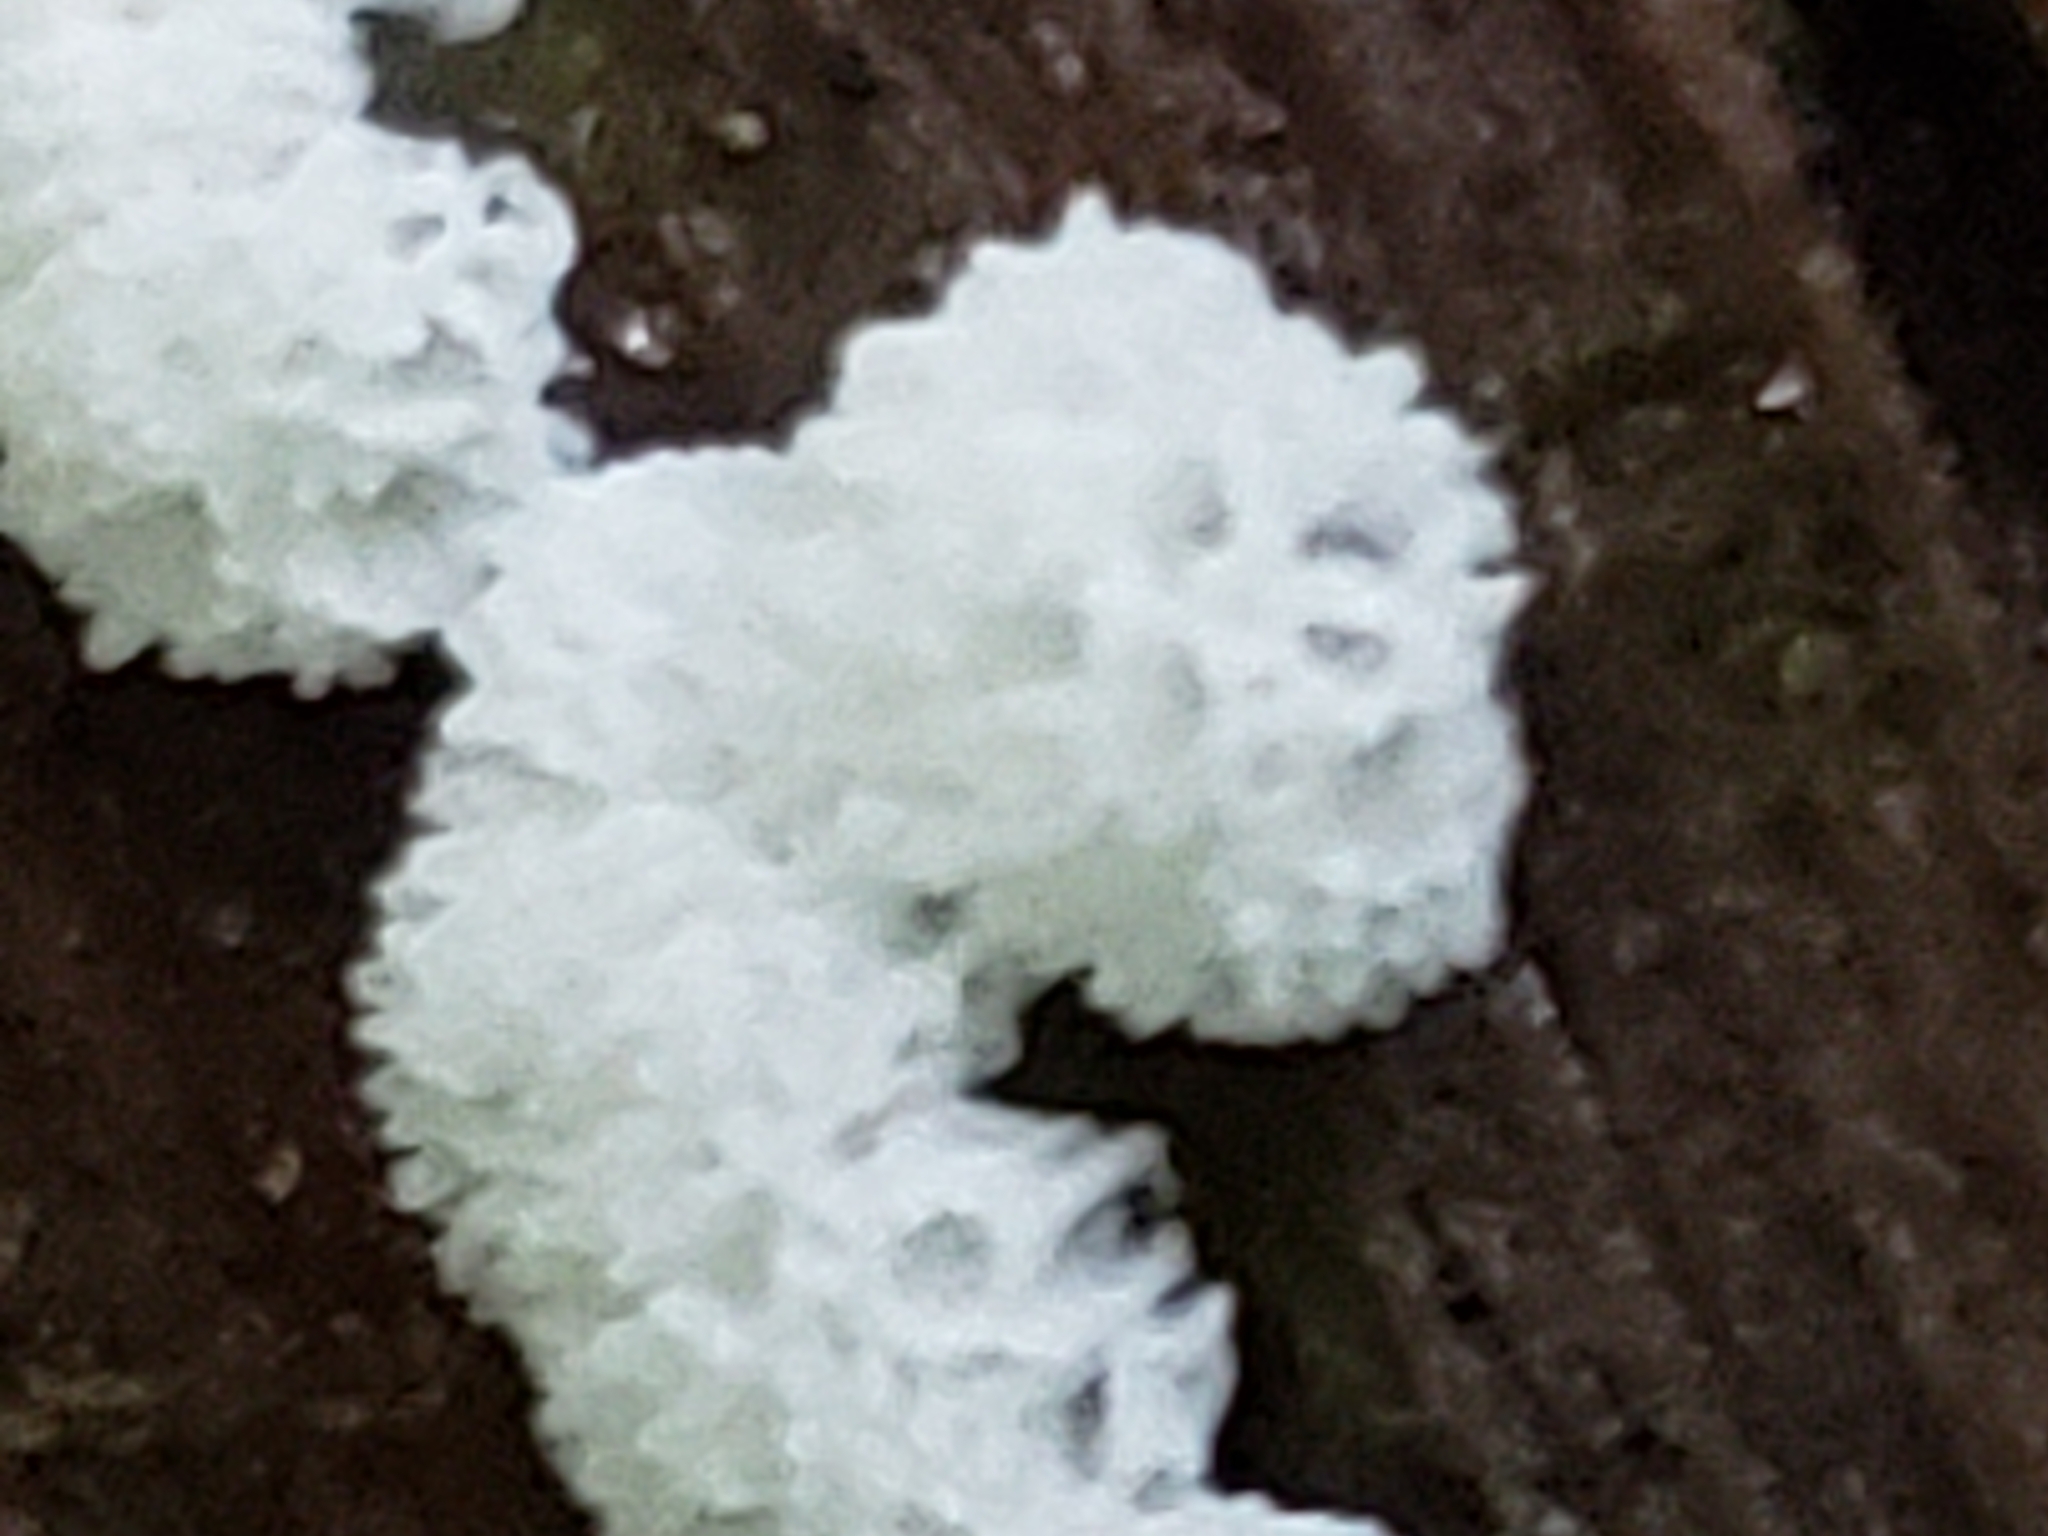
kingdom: Protozoa
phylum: Mycetozoa
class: Protosteliomycetes
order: Ceratiomyxales
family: Ceratiomyxaceae
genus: Ceratiomyxa
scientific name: Ceratiomyxa fruticulosa
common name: Honeycomb coral slime mold
